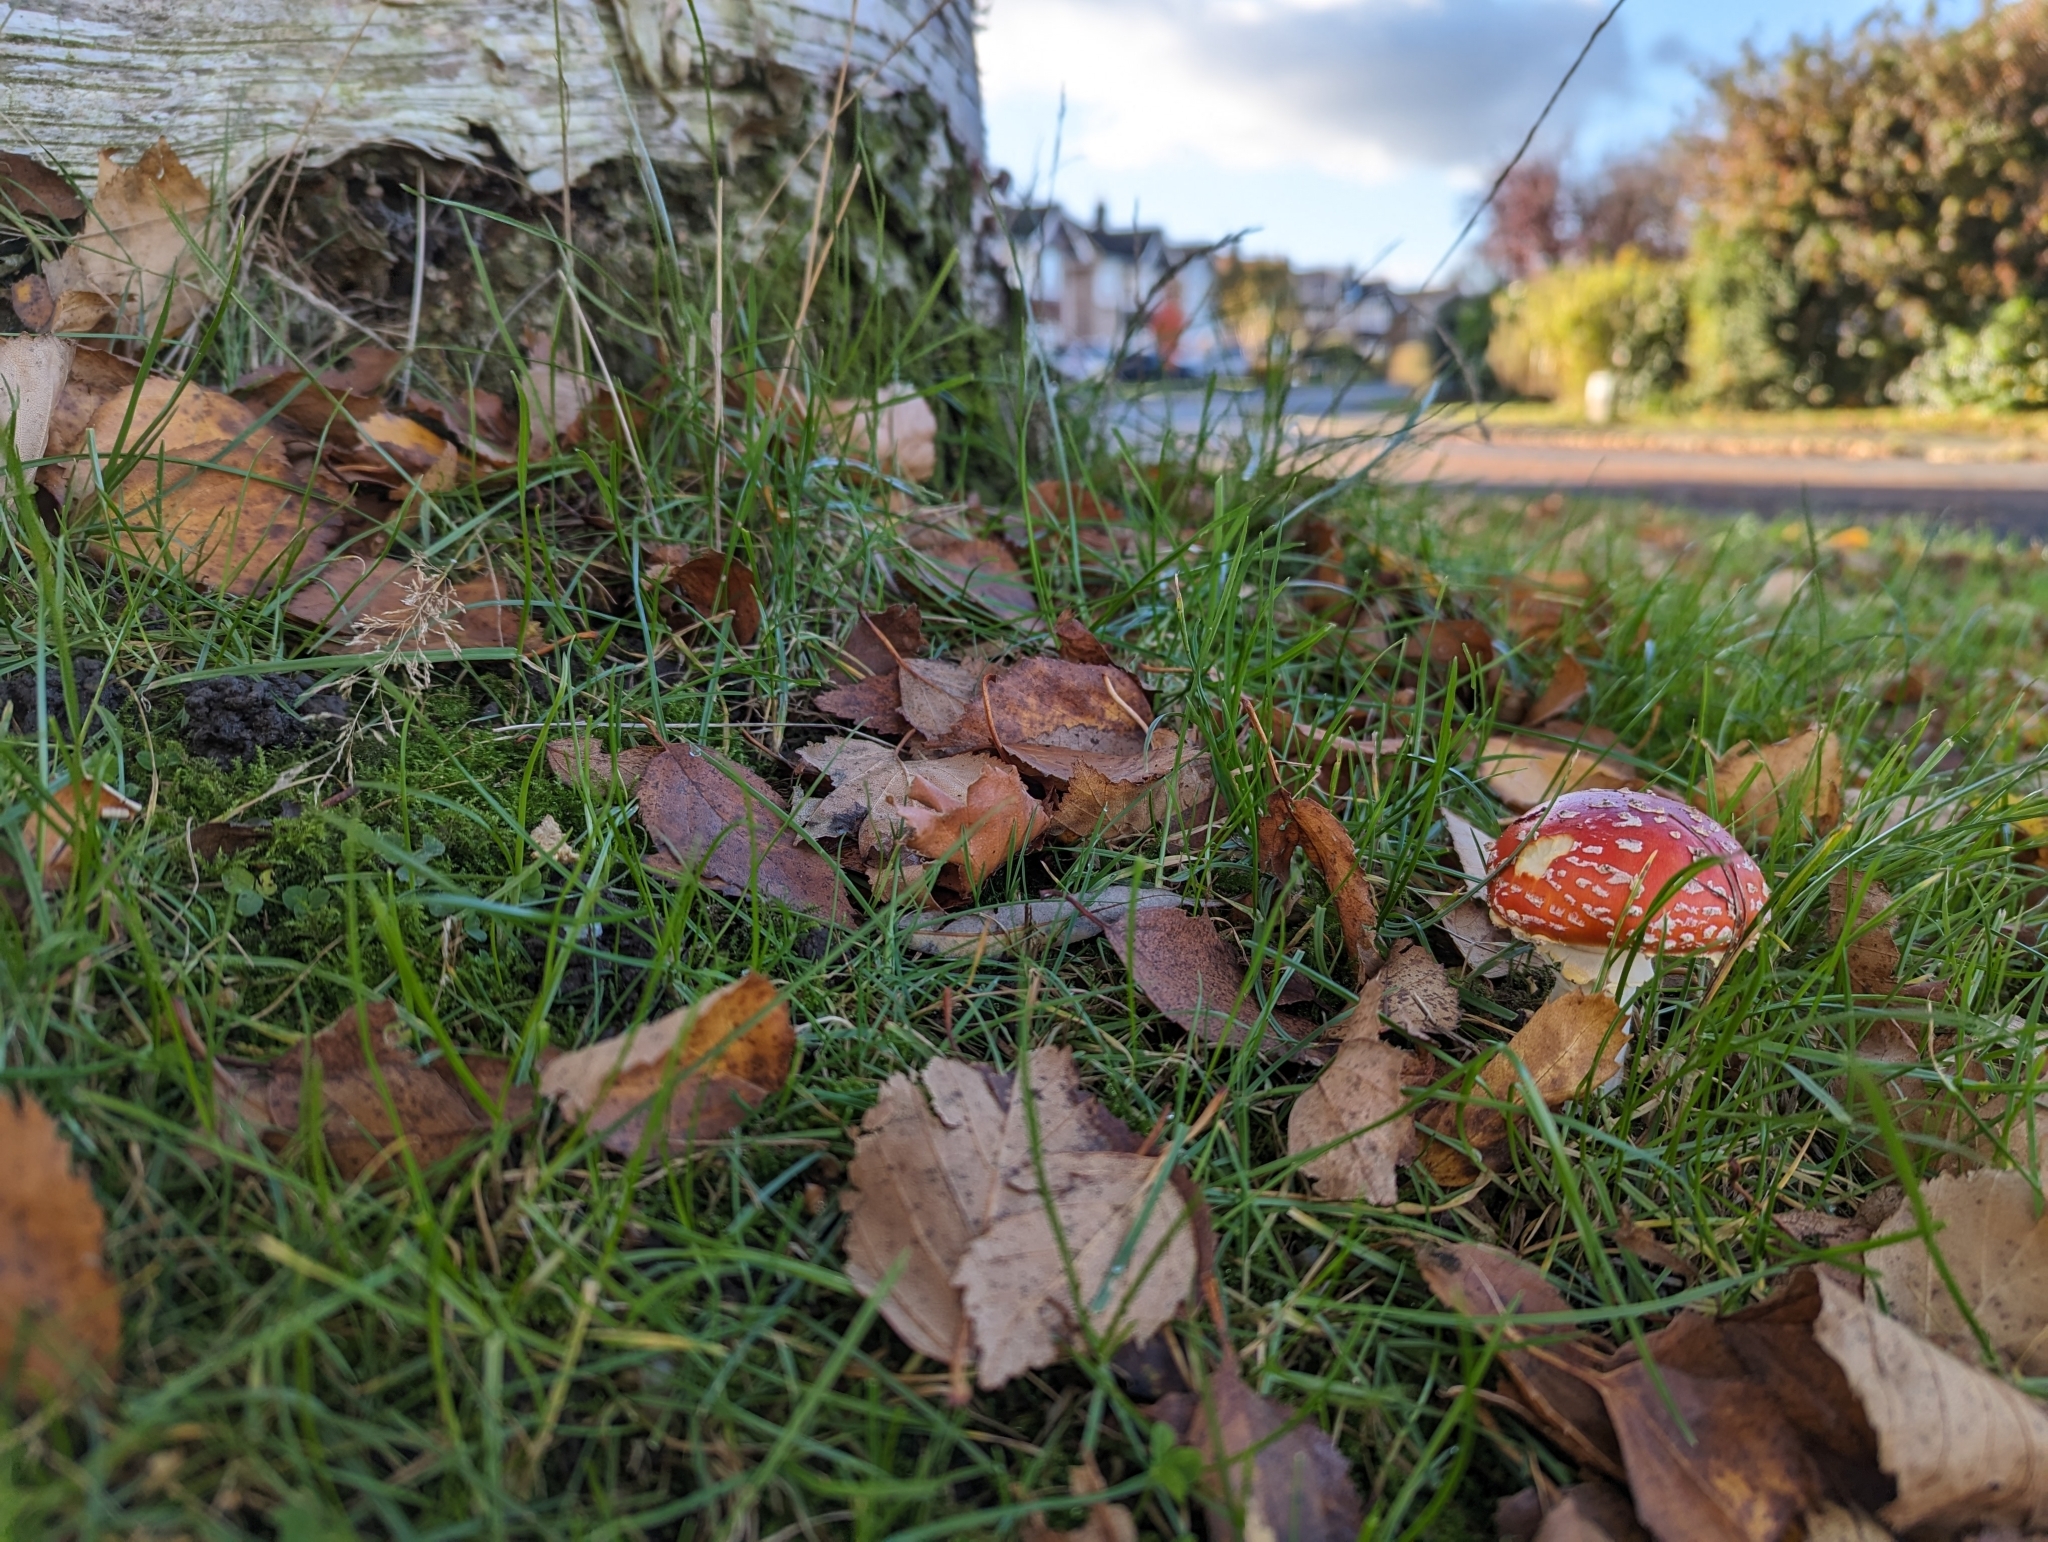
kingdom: Fungi
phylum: Basidiomycota
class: Agaricomycetes
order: Agaricales
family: Amanitaceae
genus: Amanita
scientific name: Amanita muscaria
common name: Fly agaric
